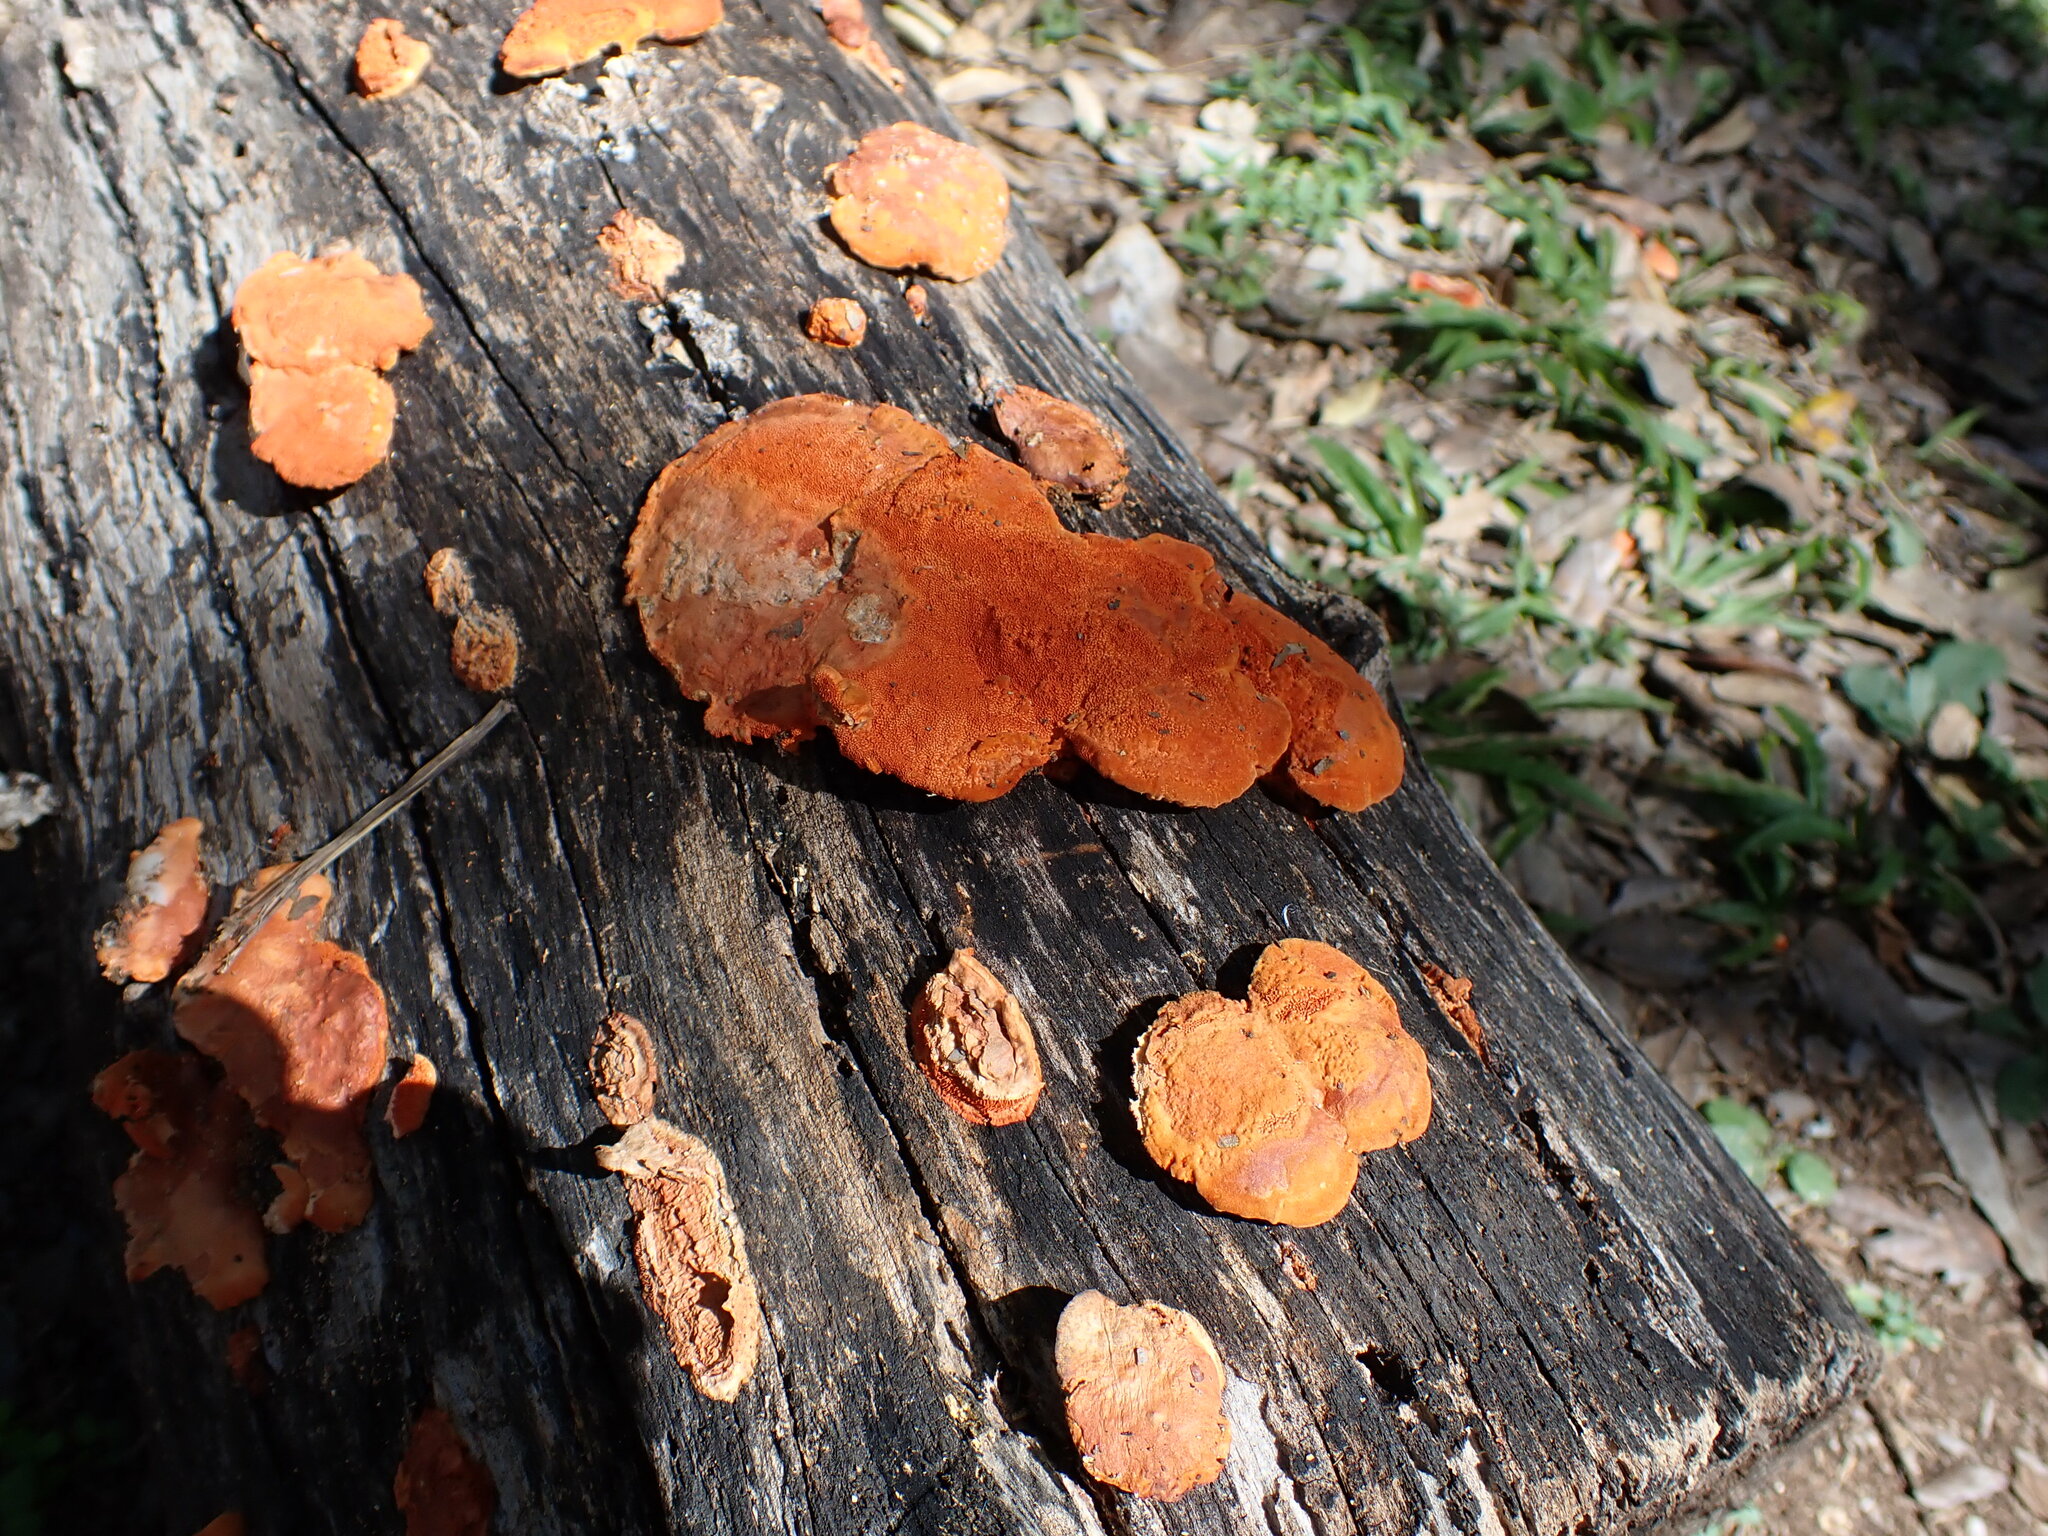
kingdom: Fungi
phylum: Basidiomycota
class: Agaricomycetes
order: Polyporales
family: Polyporaceae
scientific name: Polyporaceae
